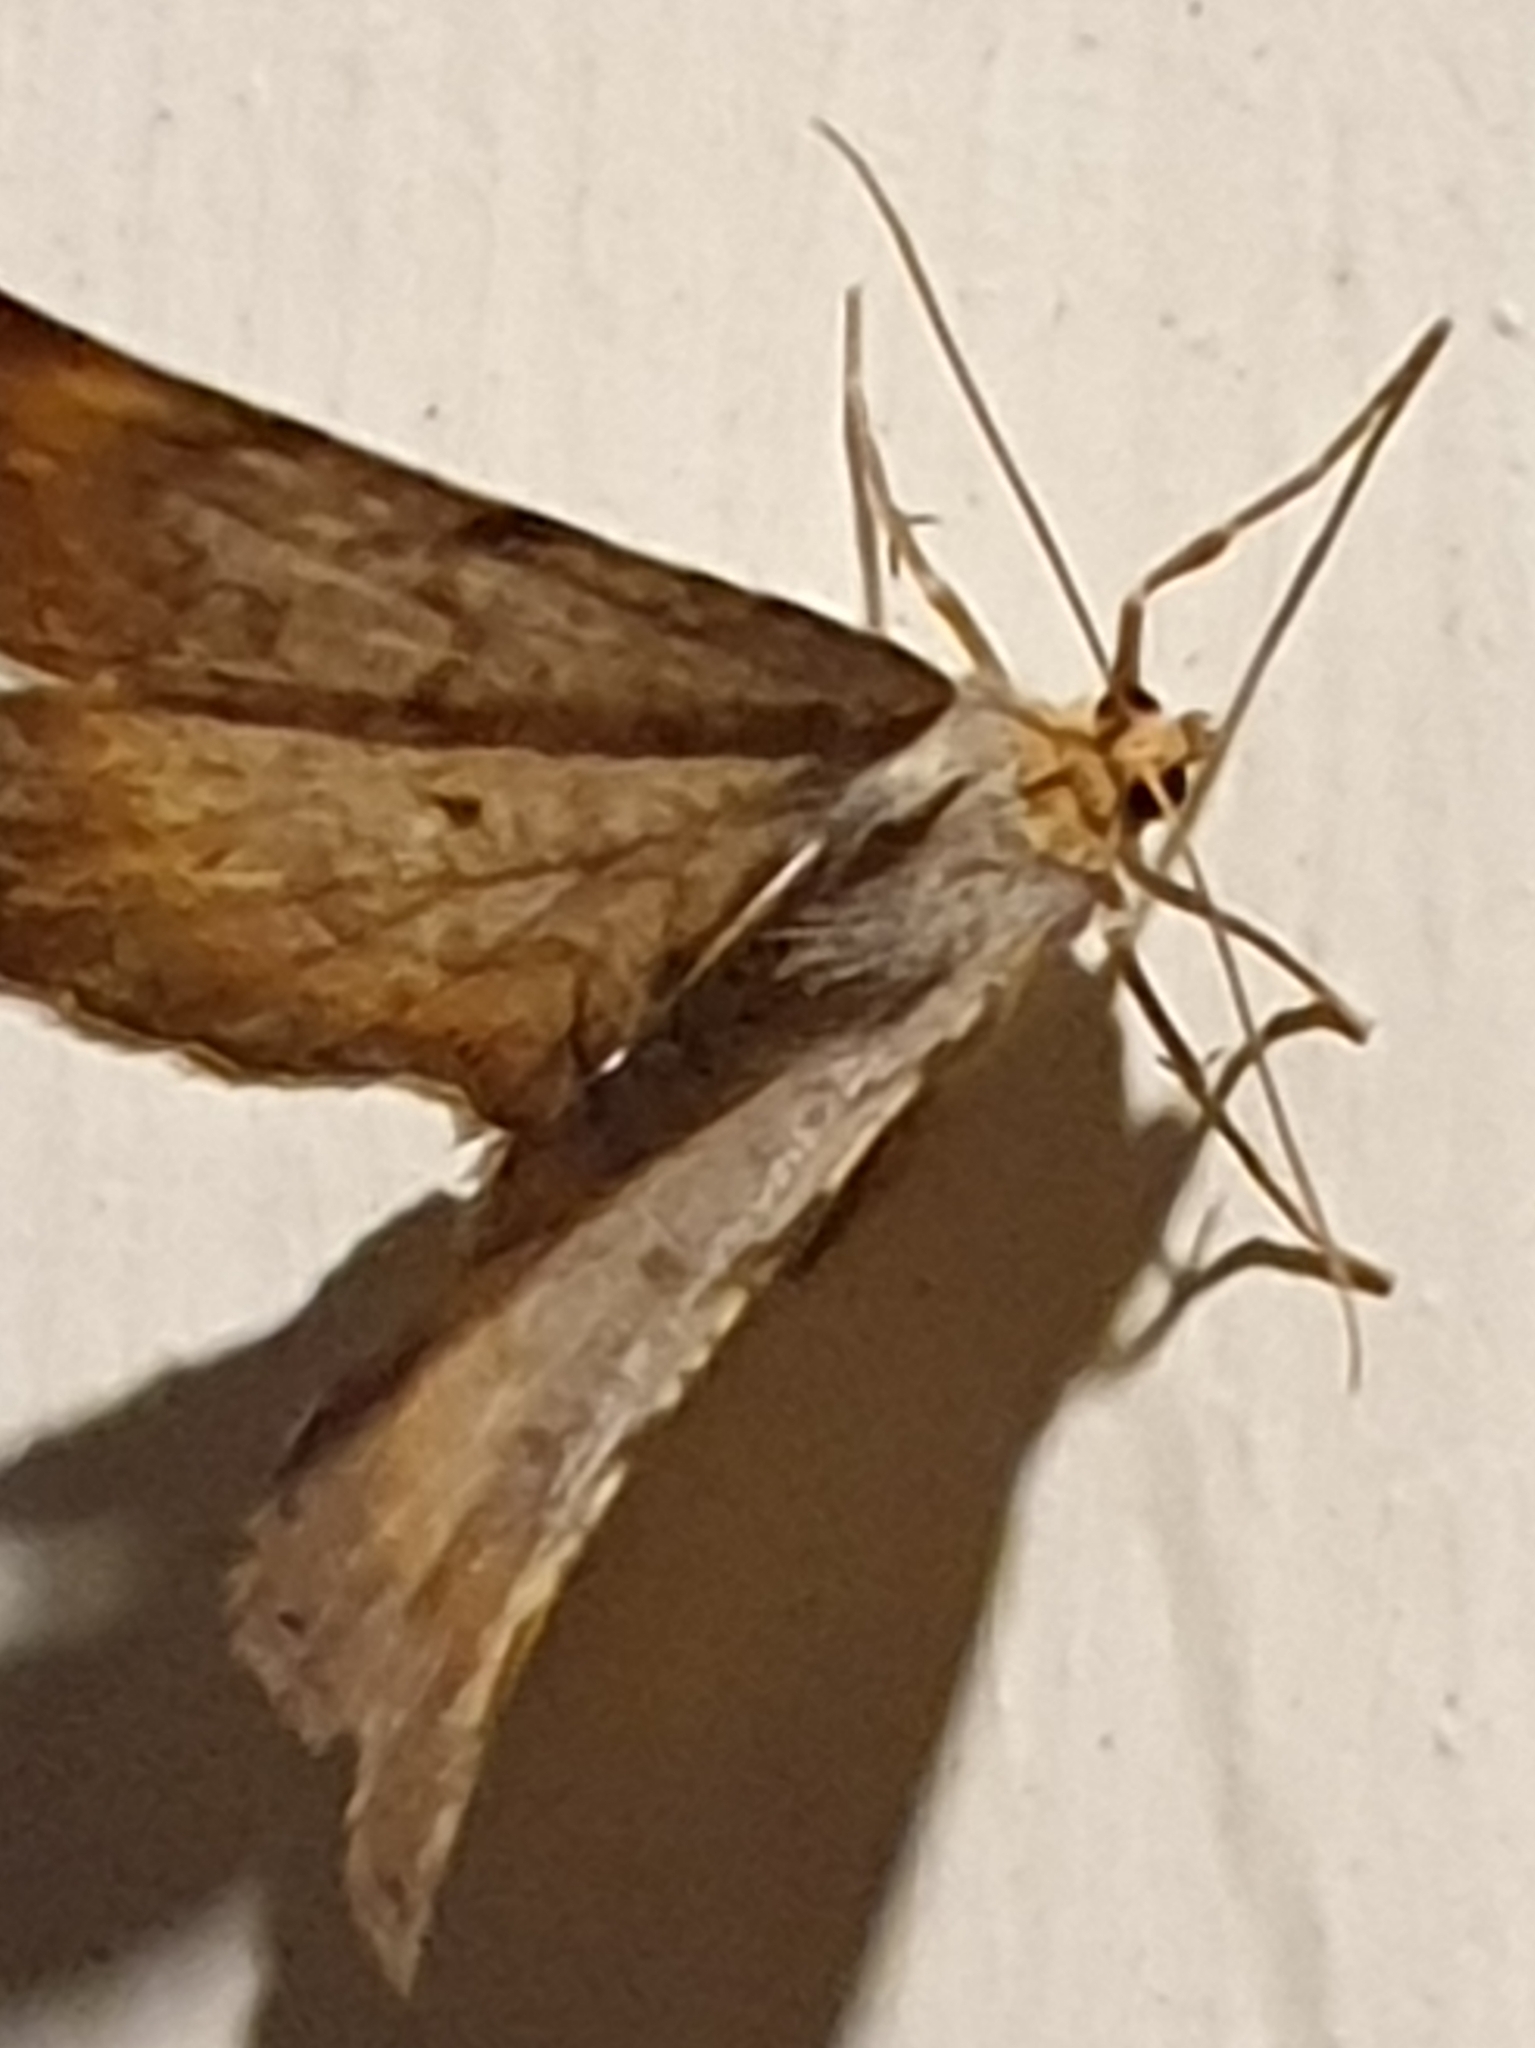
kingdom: Animalia
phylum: Arthropoda
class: Insecta
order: Lepidoptera
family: Geometridae
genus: Macaria
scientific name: Macaria liturata
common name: Tawny-barred angle
